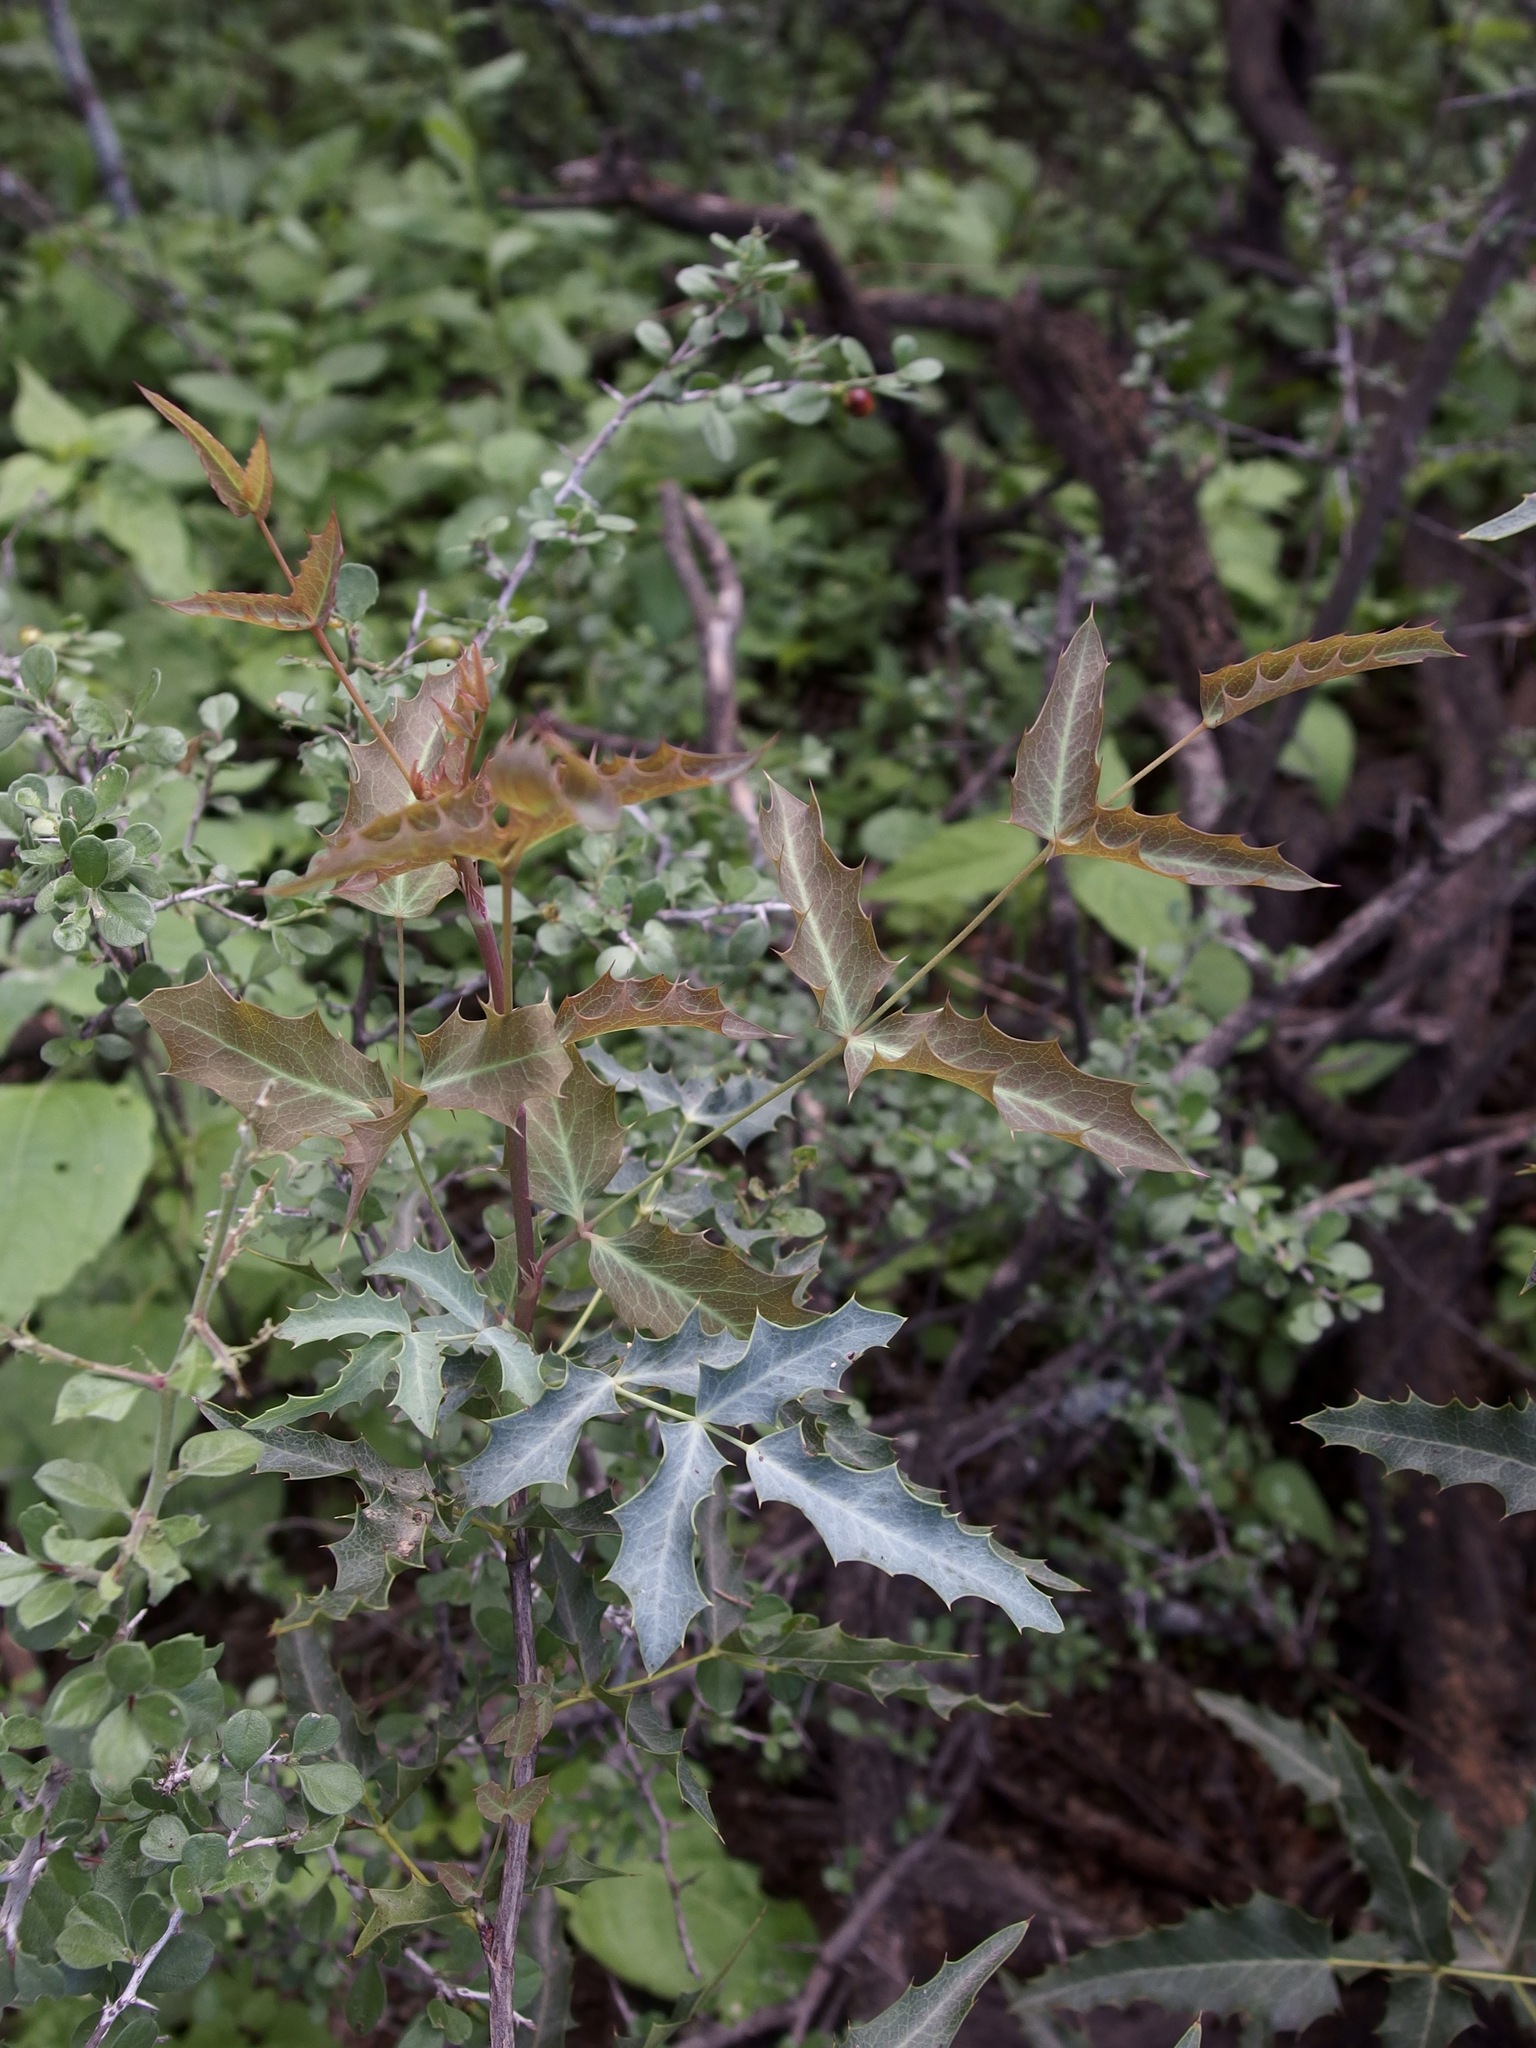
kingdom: Plantae
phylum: Tracheophyta
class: Magnoliopsida
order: Ranunculales
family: Berberidaceae
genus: Alloberberis
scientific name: Alloberberis haematocarpa
